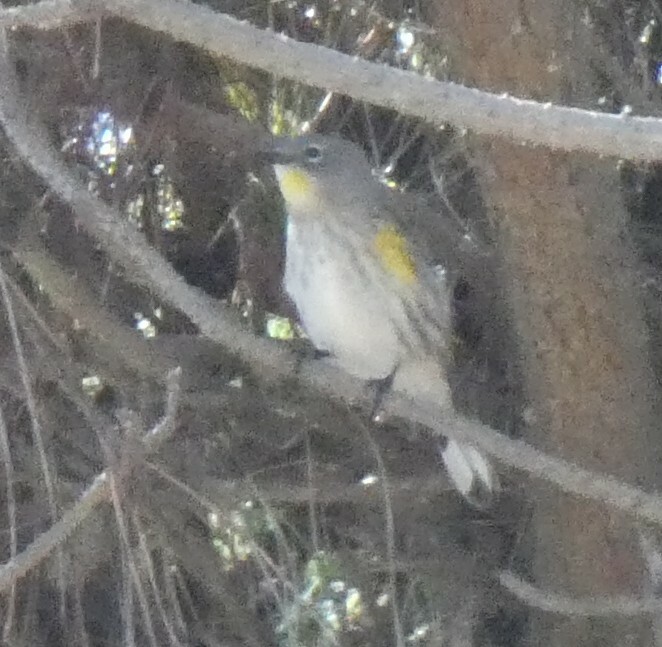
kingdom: Animalia
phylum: Chordata
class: Aves
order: Passeriformes
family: Parulidae
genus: Setophaga
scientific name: Setophaga coronata
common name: Myrtle warbler
